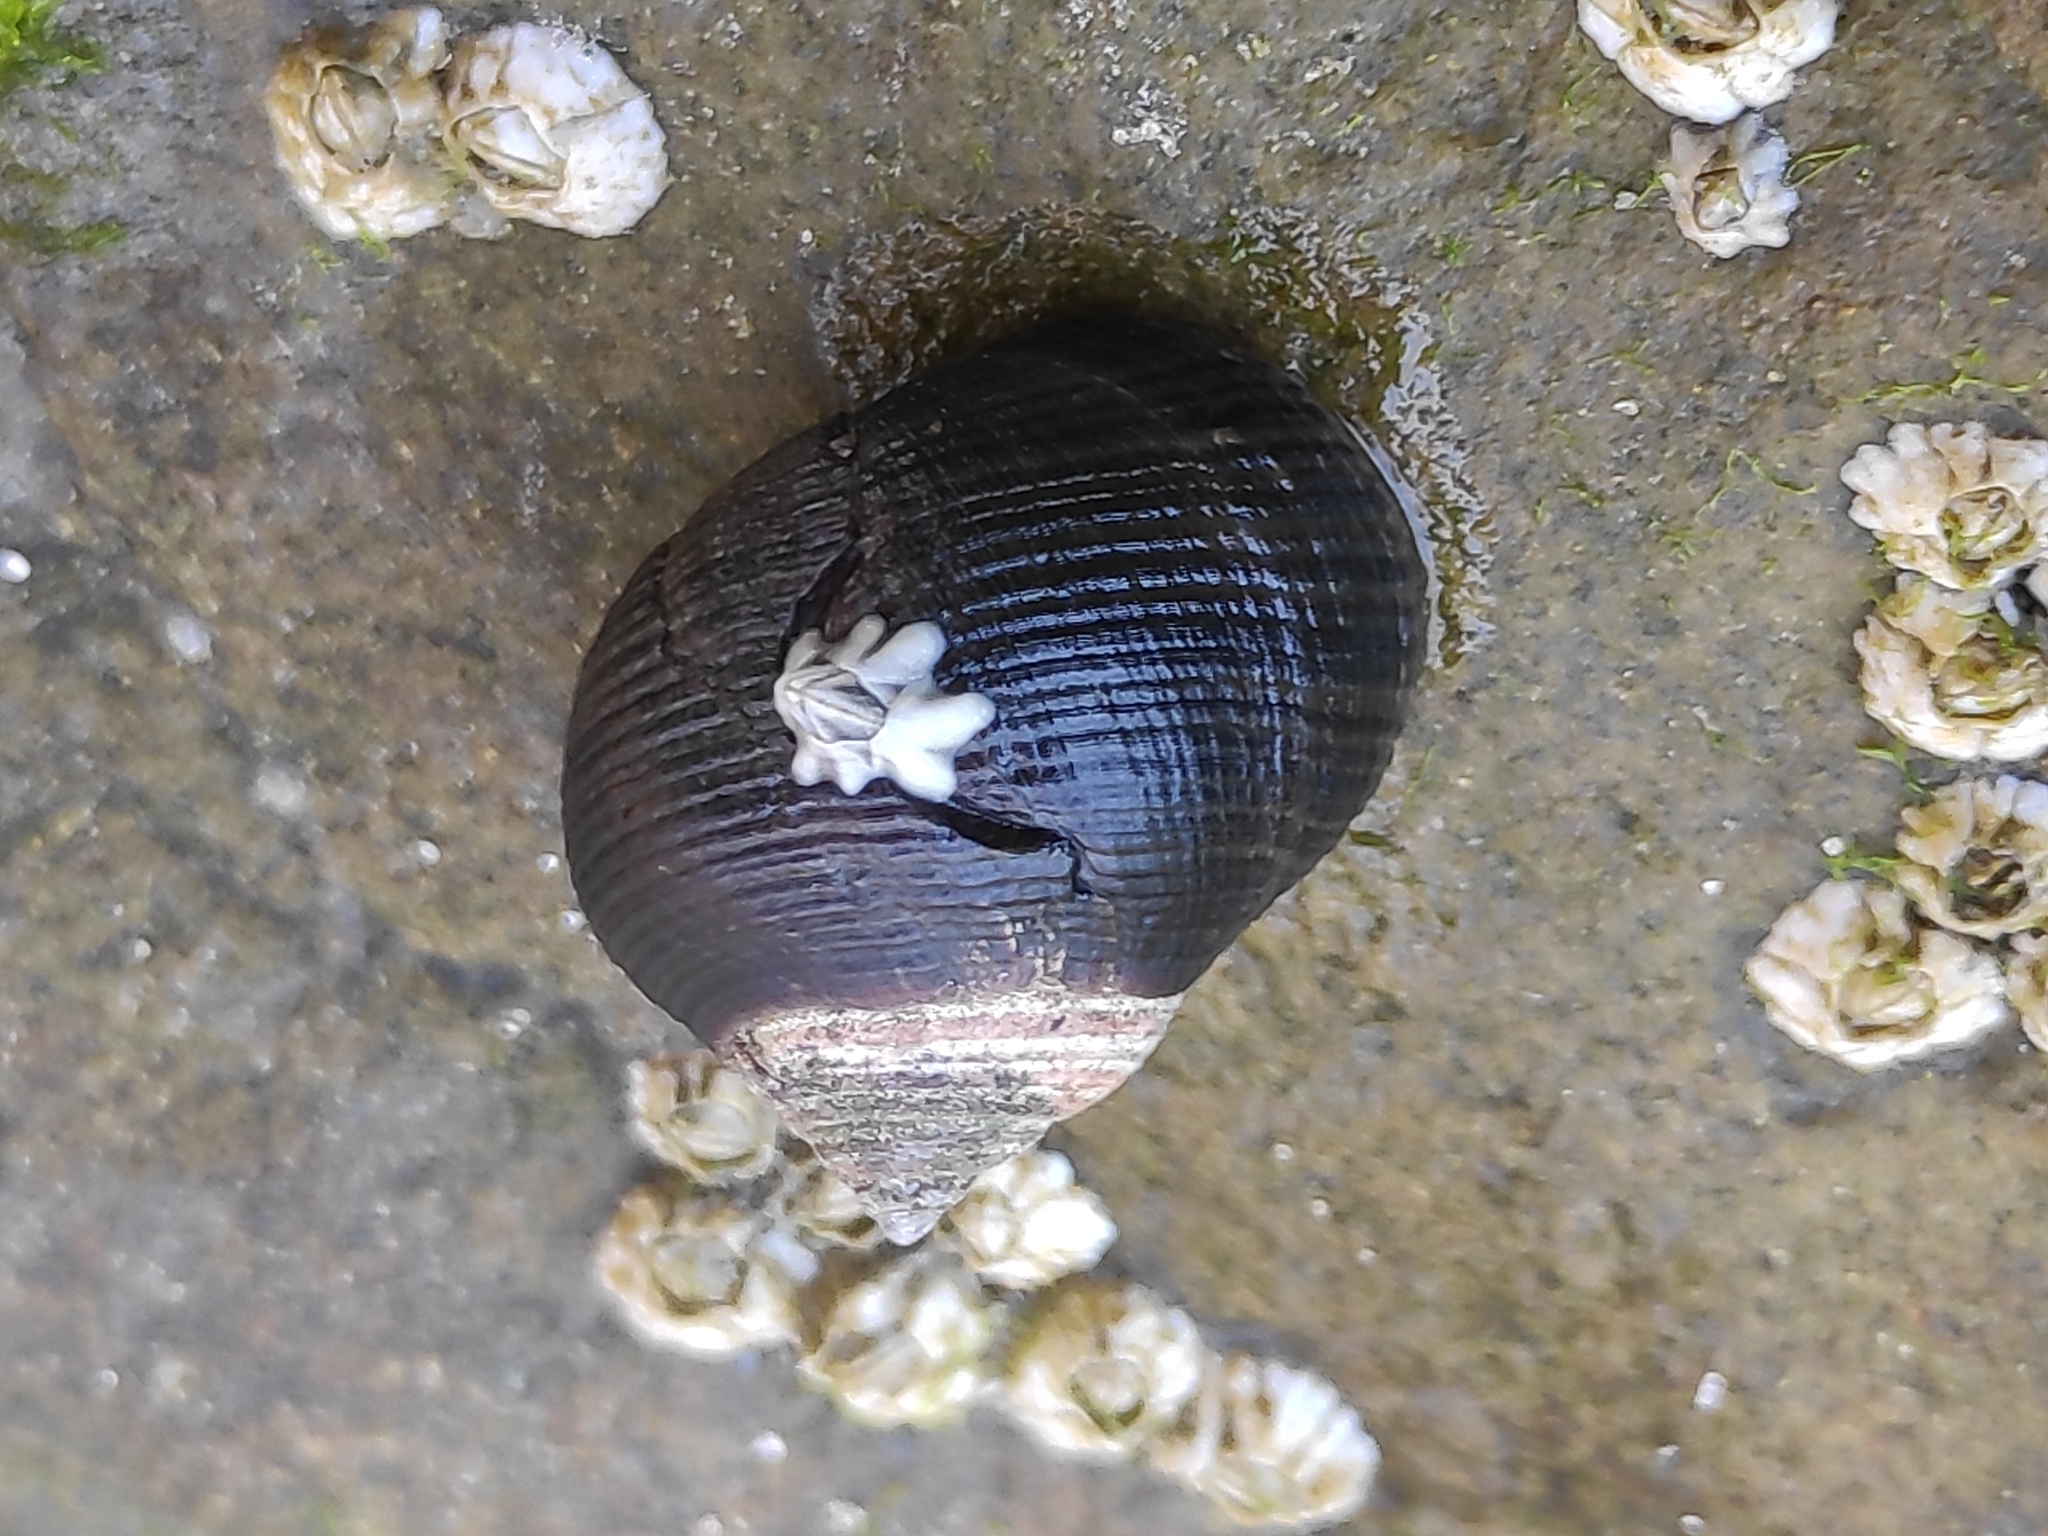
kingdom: Animalia
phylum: Mollusca
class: Gastropoda
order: Littorinimorpha
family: Littorinidae
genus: Littorina
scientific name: Littorina littorea
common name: Common periwinkle
